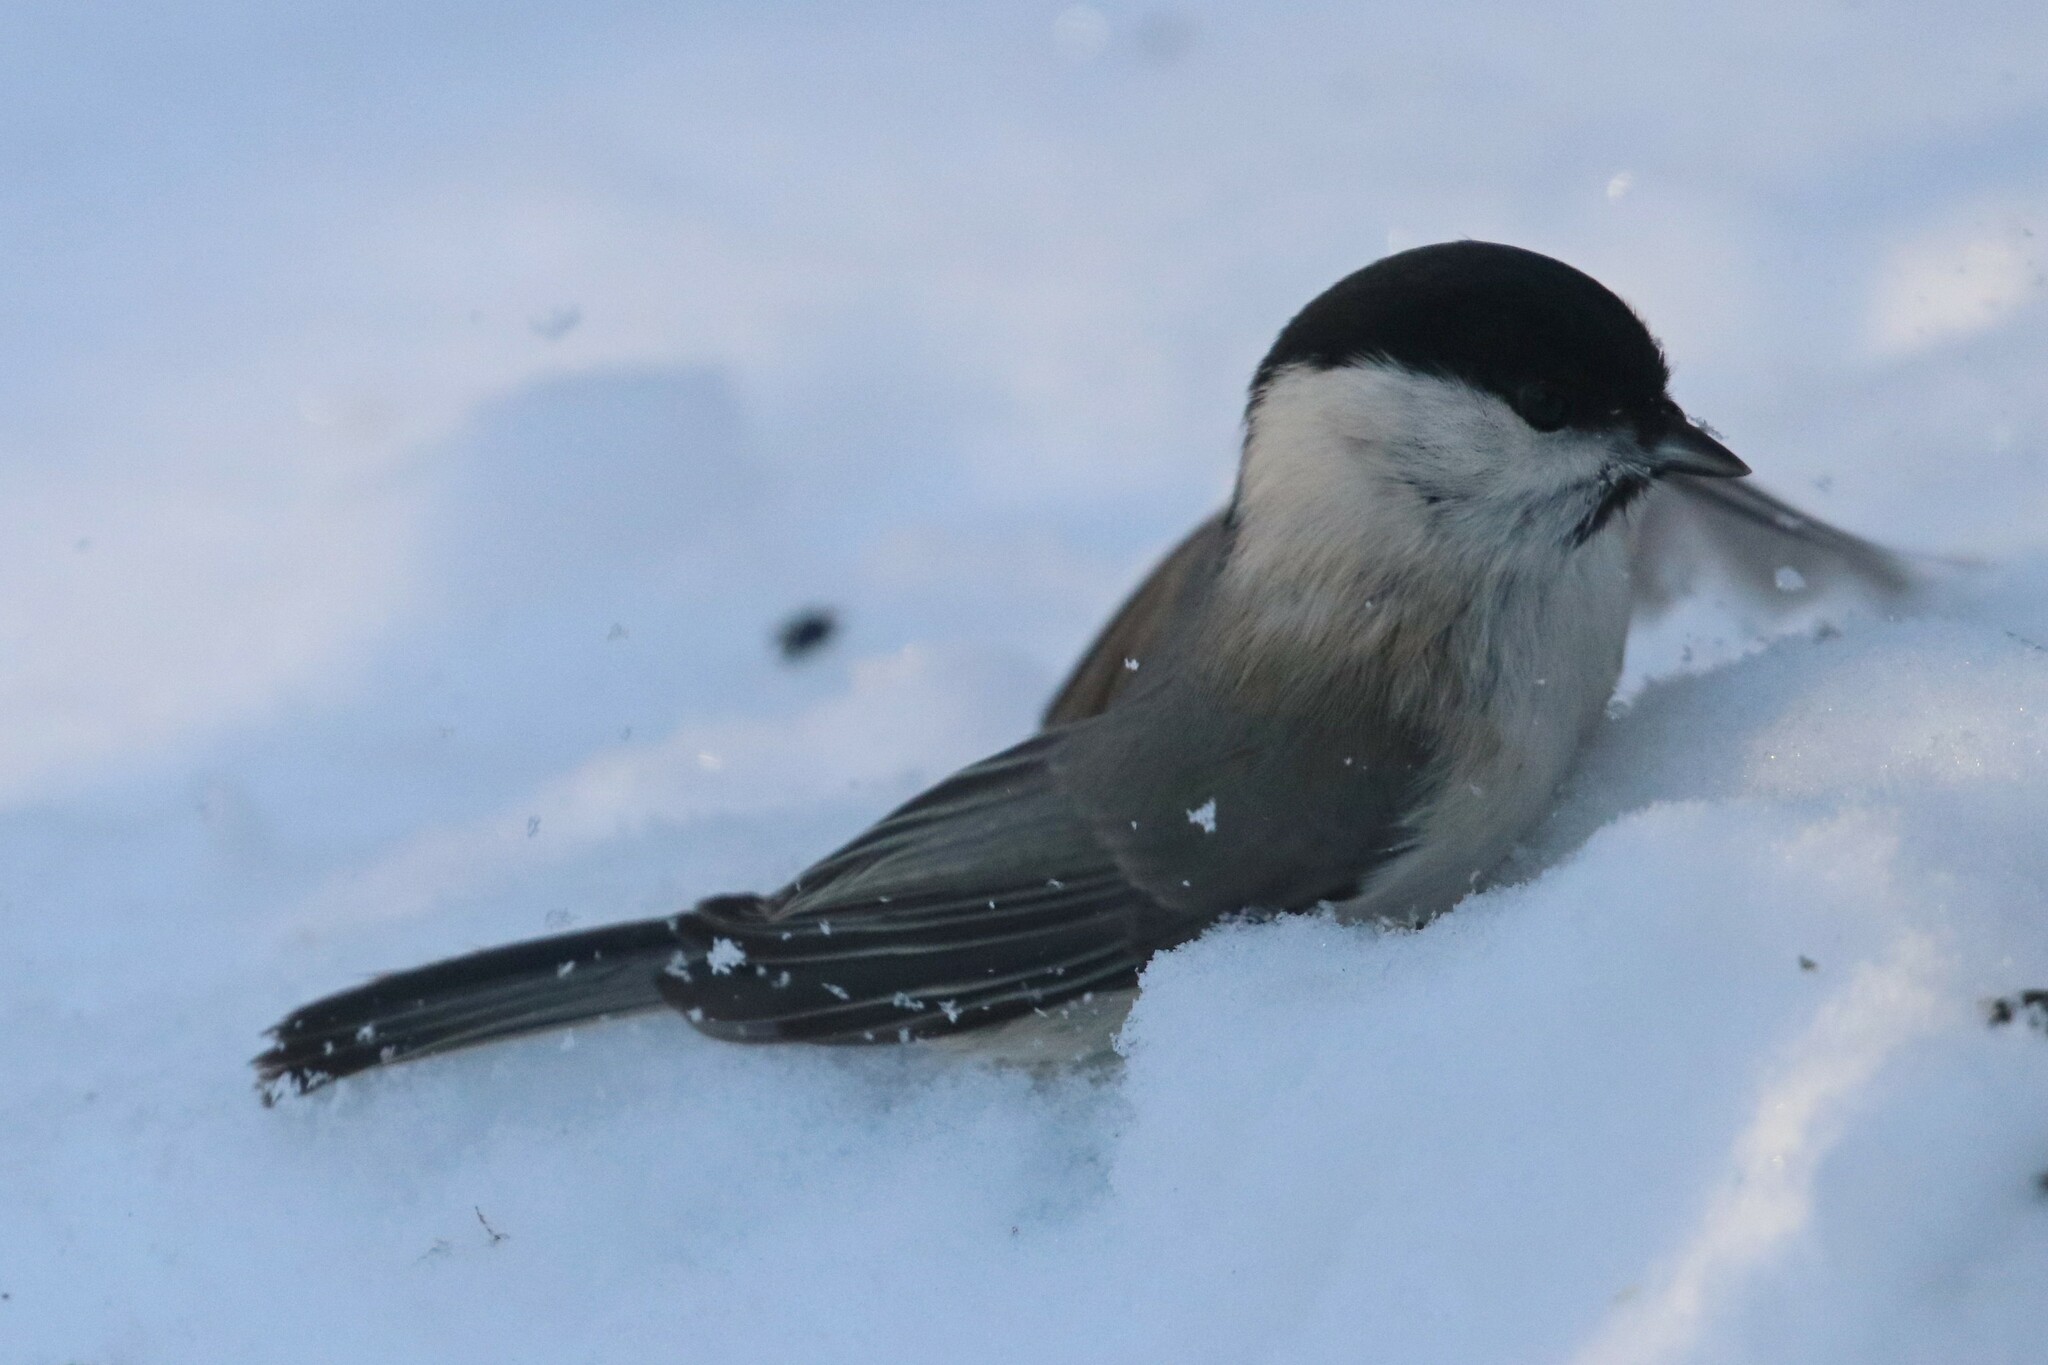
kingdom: Animalia
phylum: Chordata
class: Aves
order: Passeriformes
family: Paridae
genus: Poecile
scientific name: Poecile palustris
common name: Marsh tit
